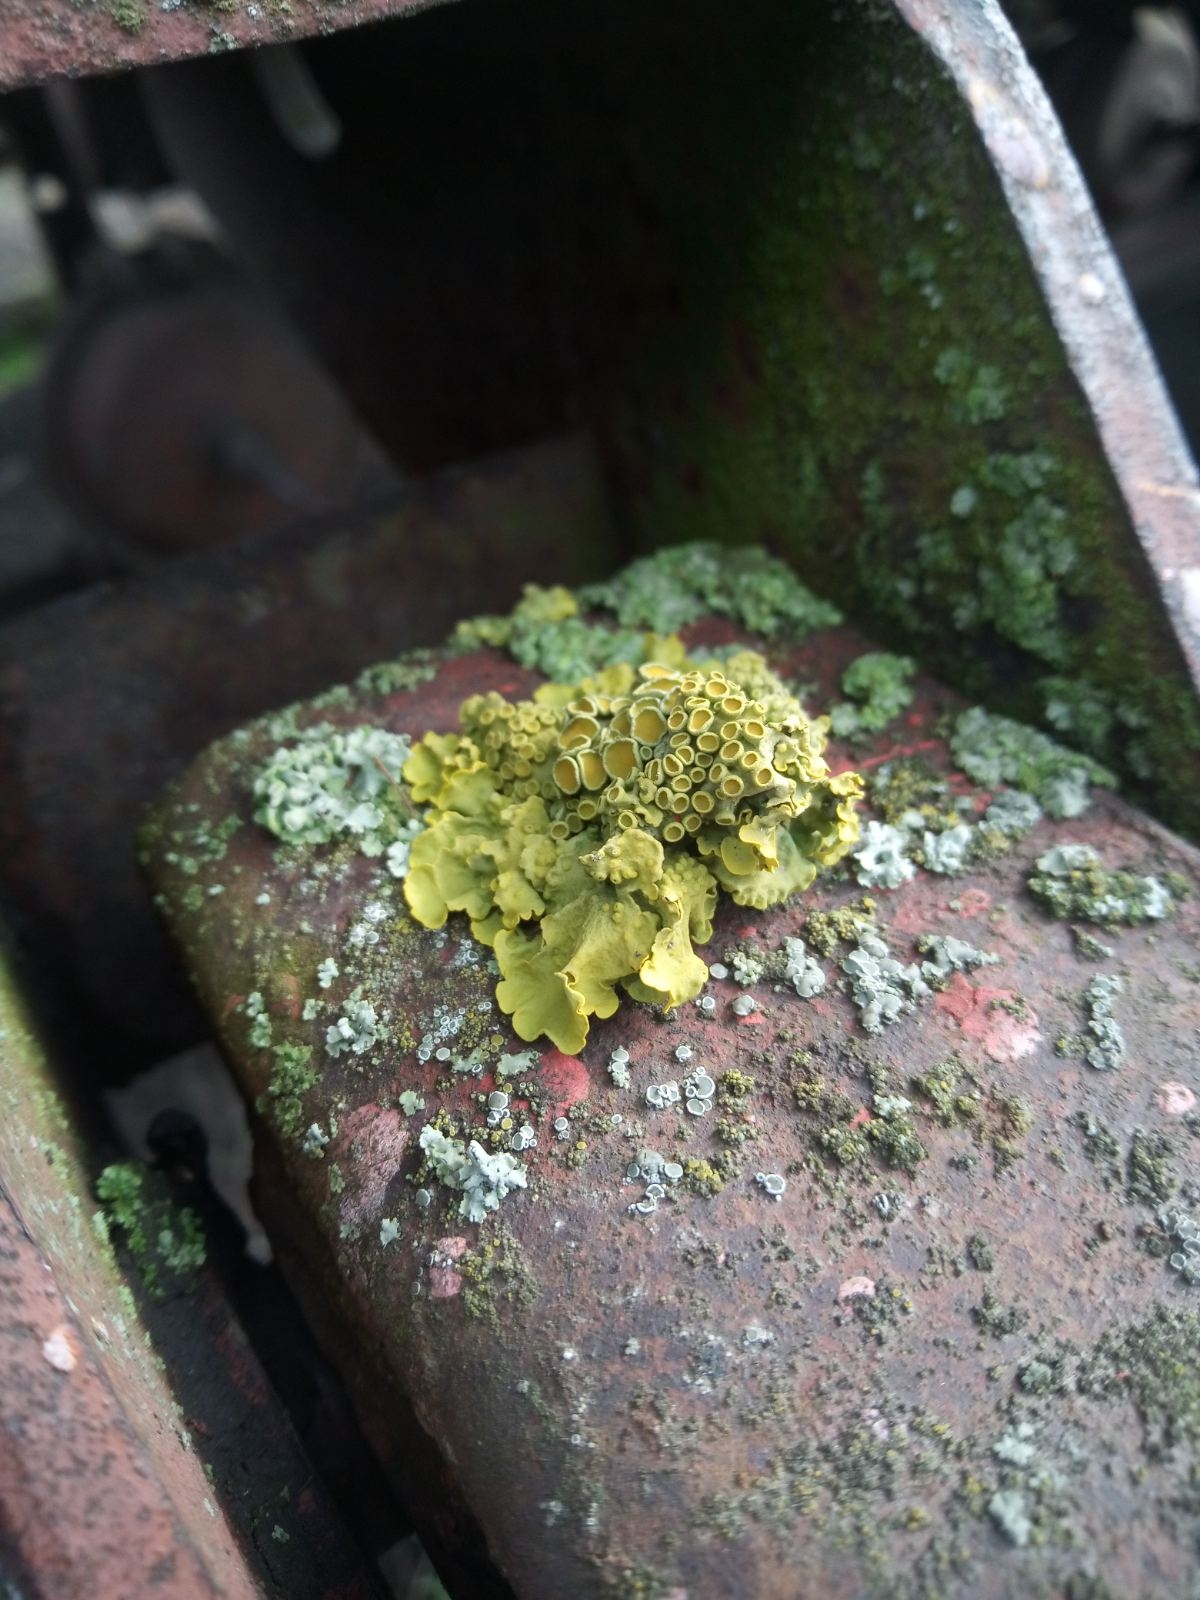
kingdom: Fungi
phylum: Ascomycota
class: Lecanoromycetes
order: Teloschistales
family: Teloschistaceae
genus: Xanthoria
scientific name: Xanthoria parietina
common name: Common orange lichen
